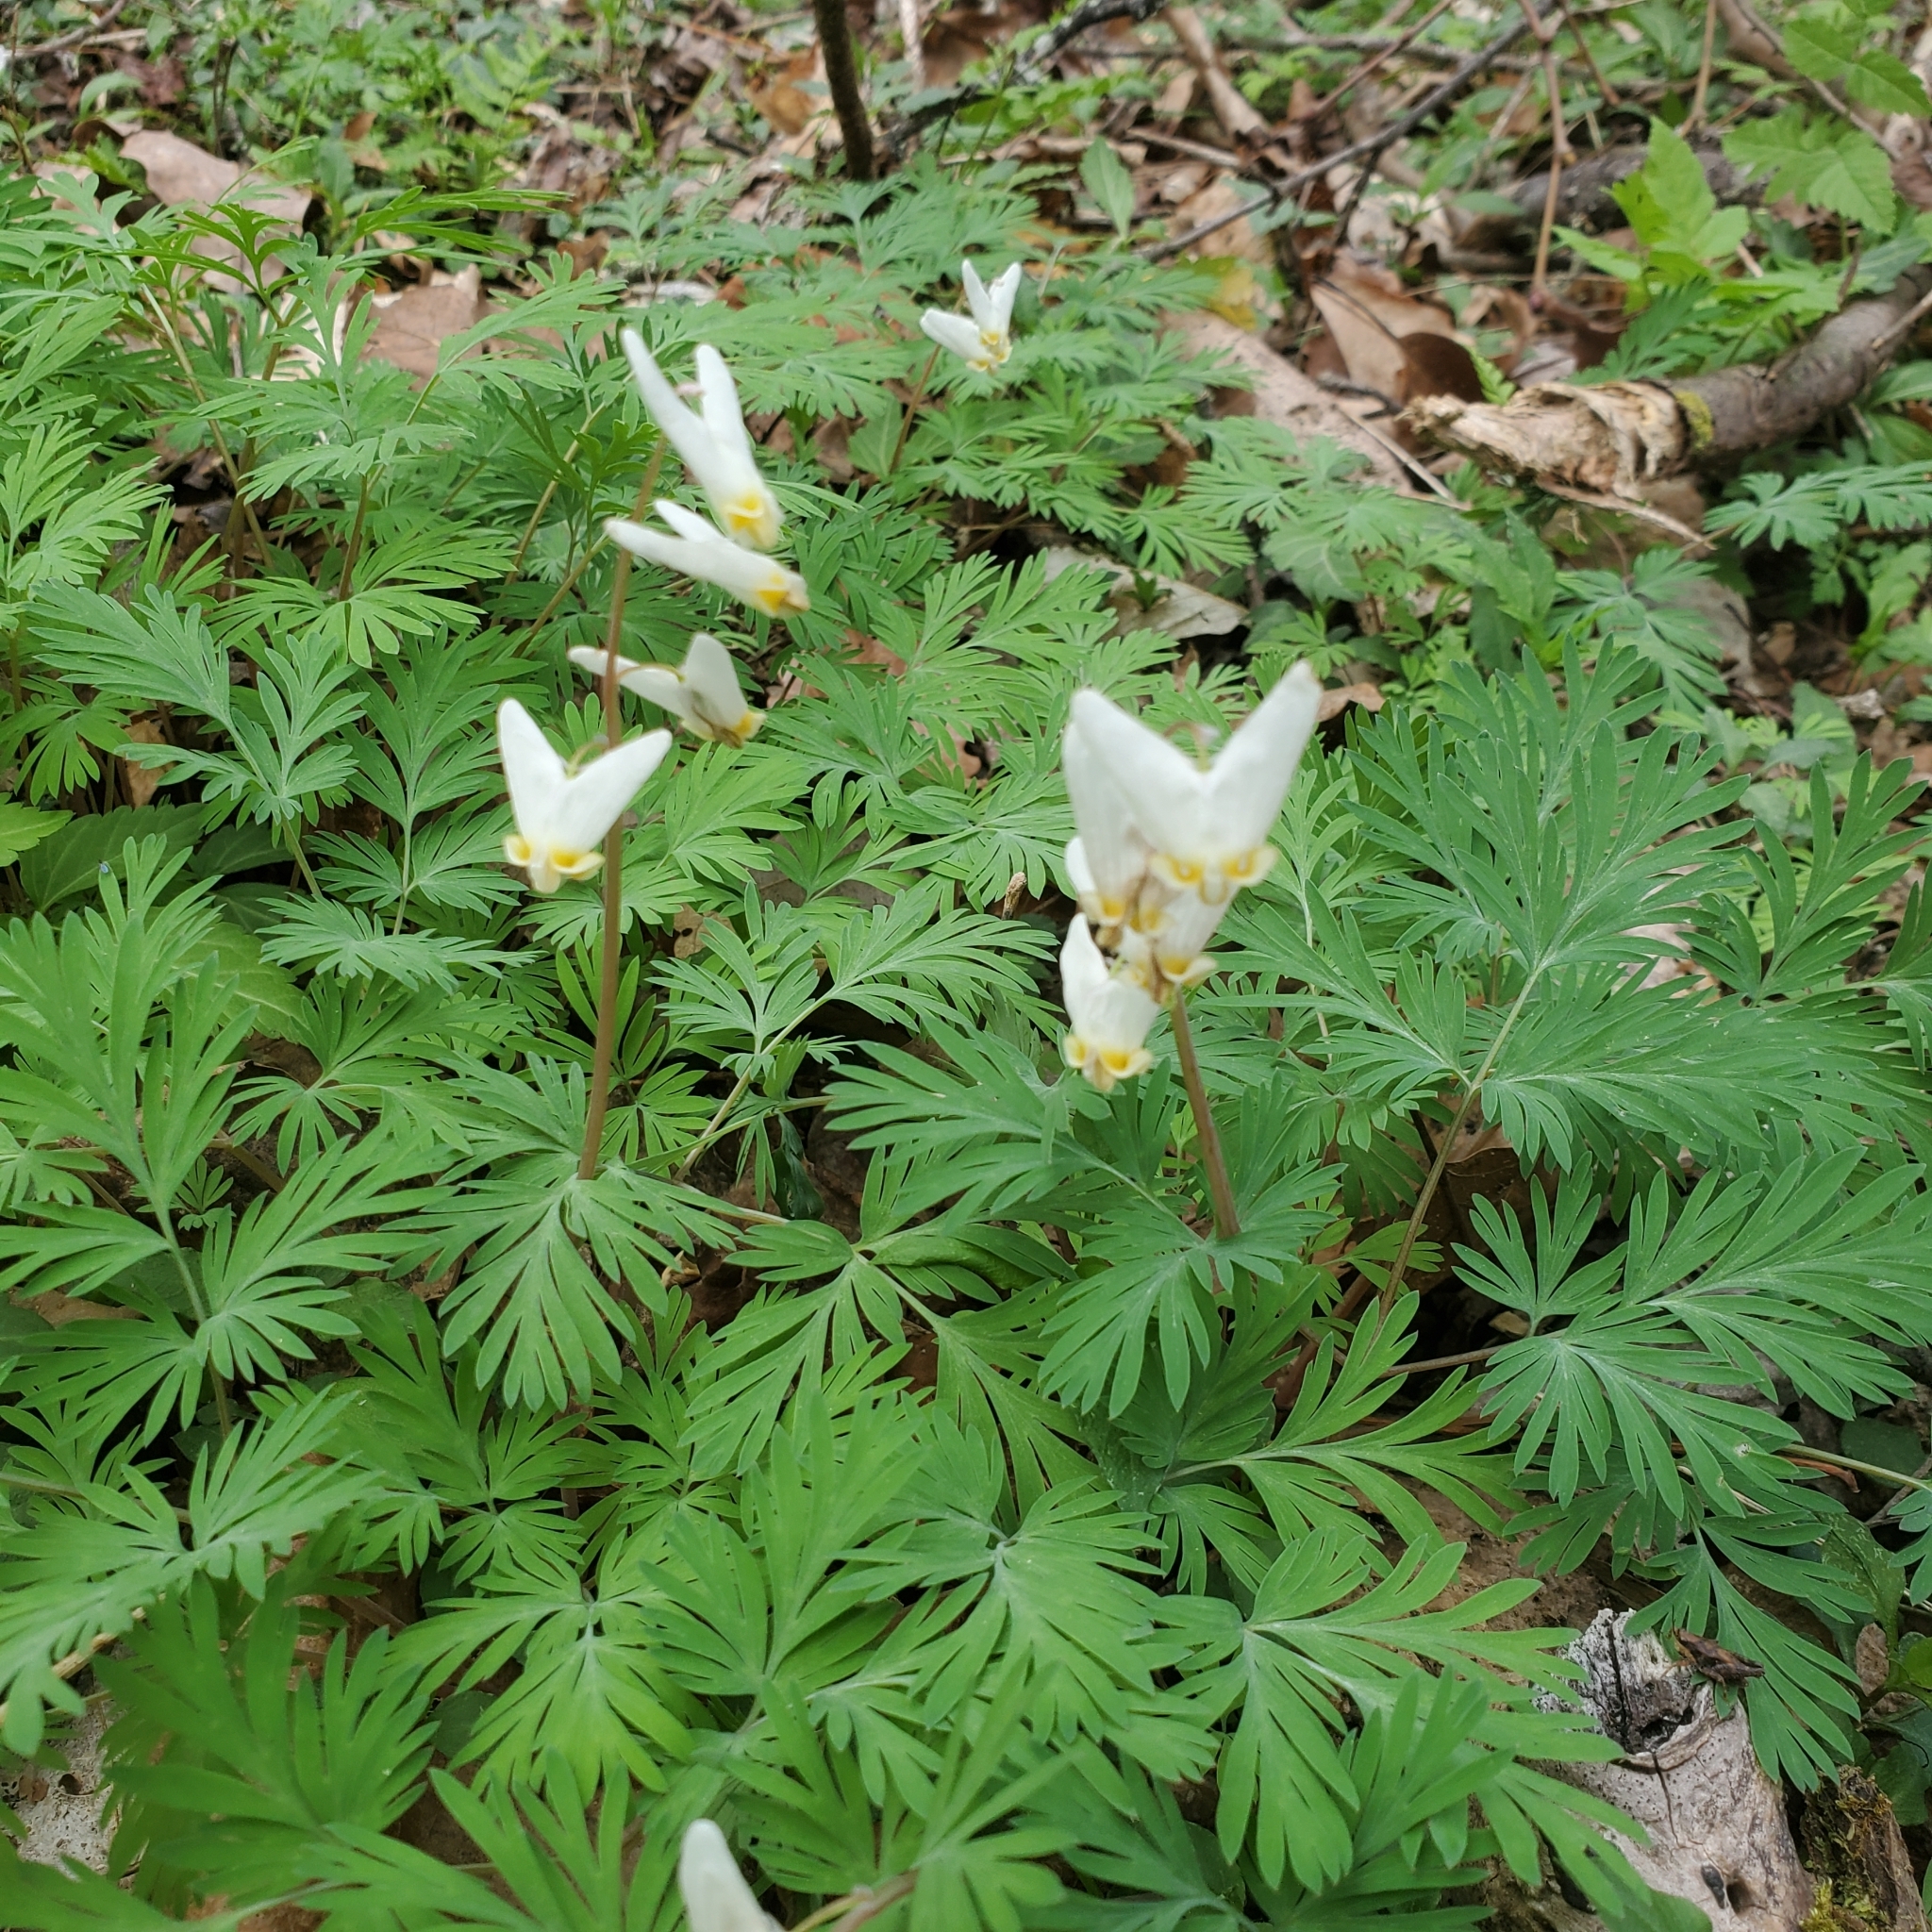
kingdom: Plantae
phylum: Tracheophyta
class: Magnoliopsida
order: Ranunculales
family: Papaveraceae
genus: Dicentra
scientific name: Dicentra cucullaria
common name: Dutchman's breeches
